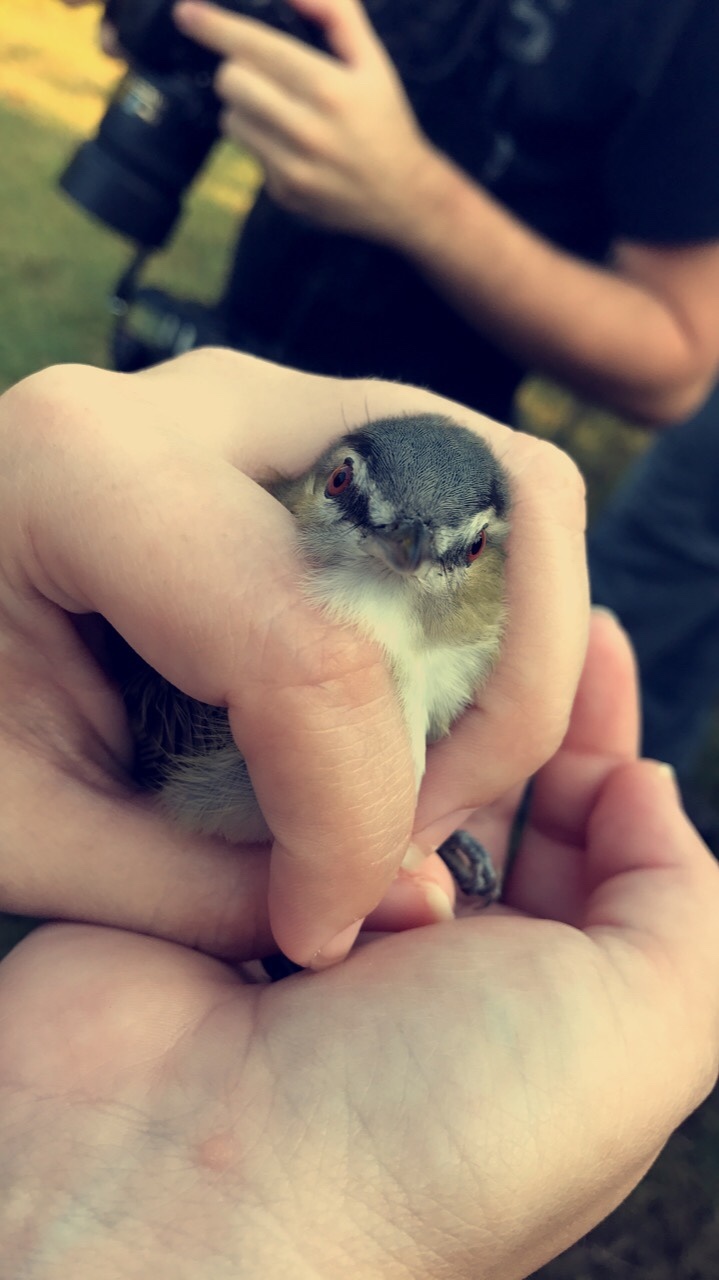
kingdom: Animalia
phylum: Chordata
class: Aves
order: Passeriformes
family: Vireonidae
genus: Vireo
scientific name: Vireo olivaceus
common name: Red-eyed vireo
